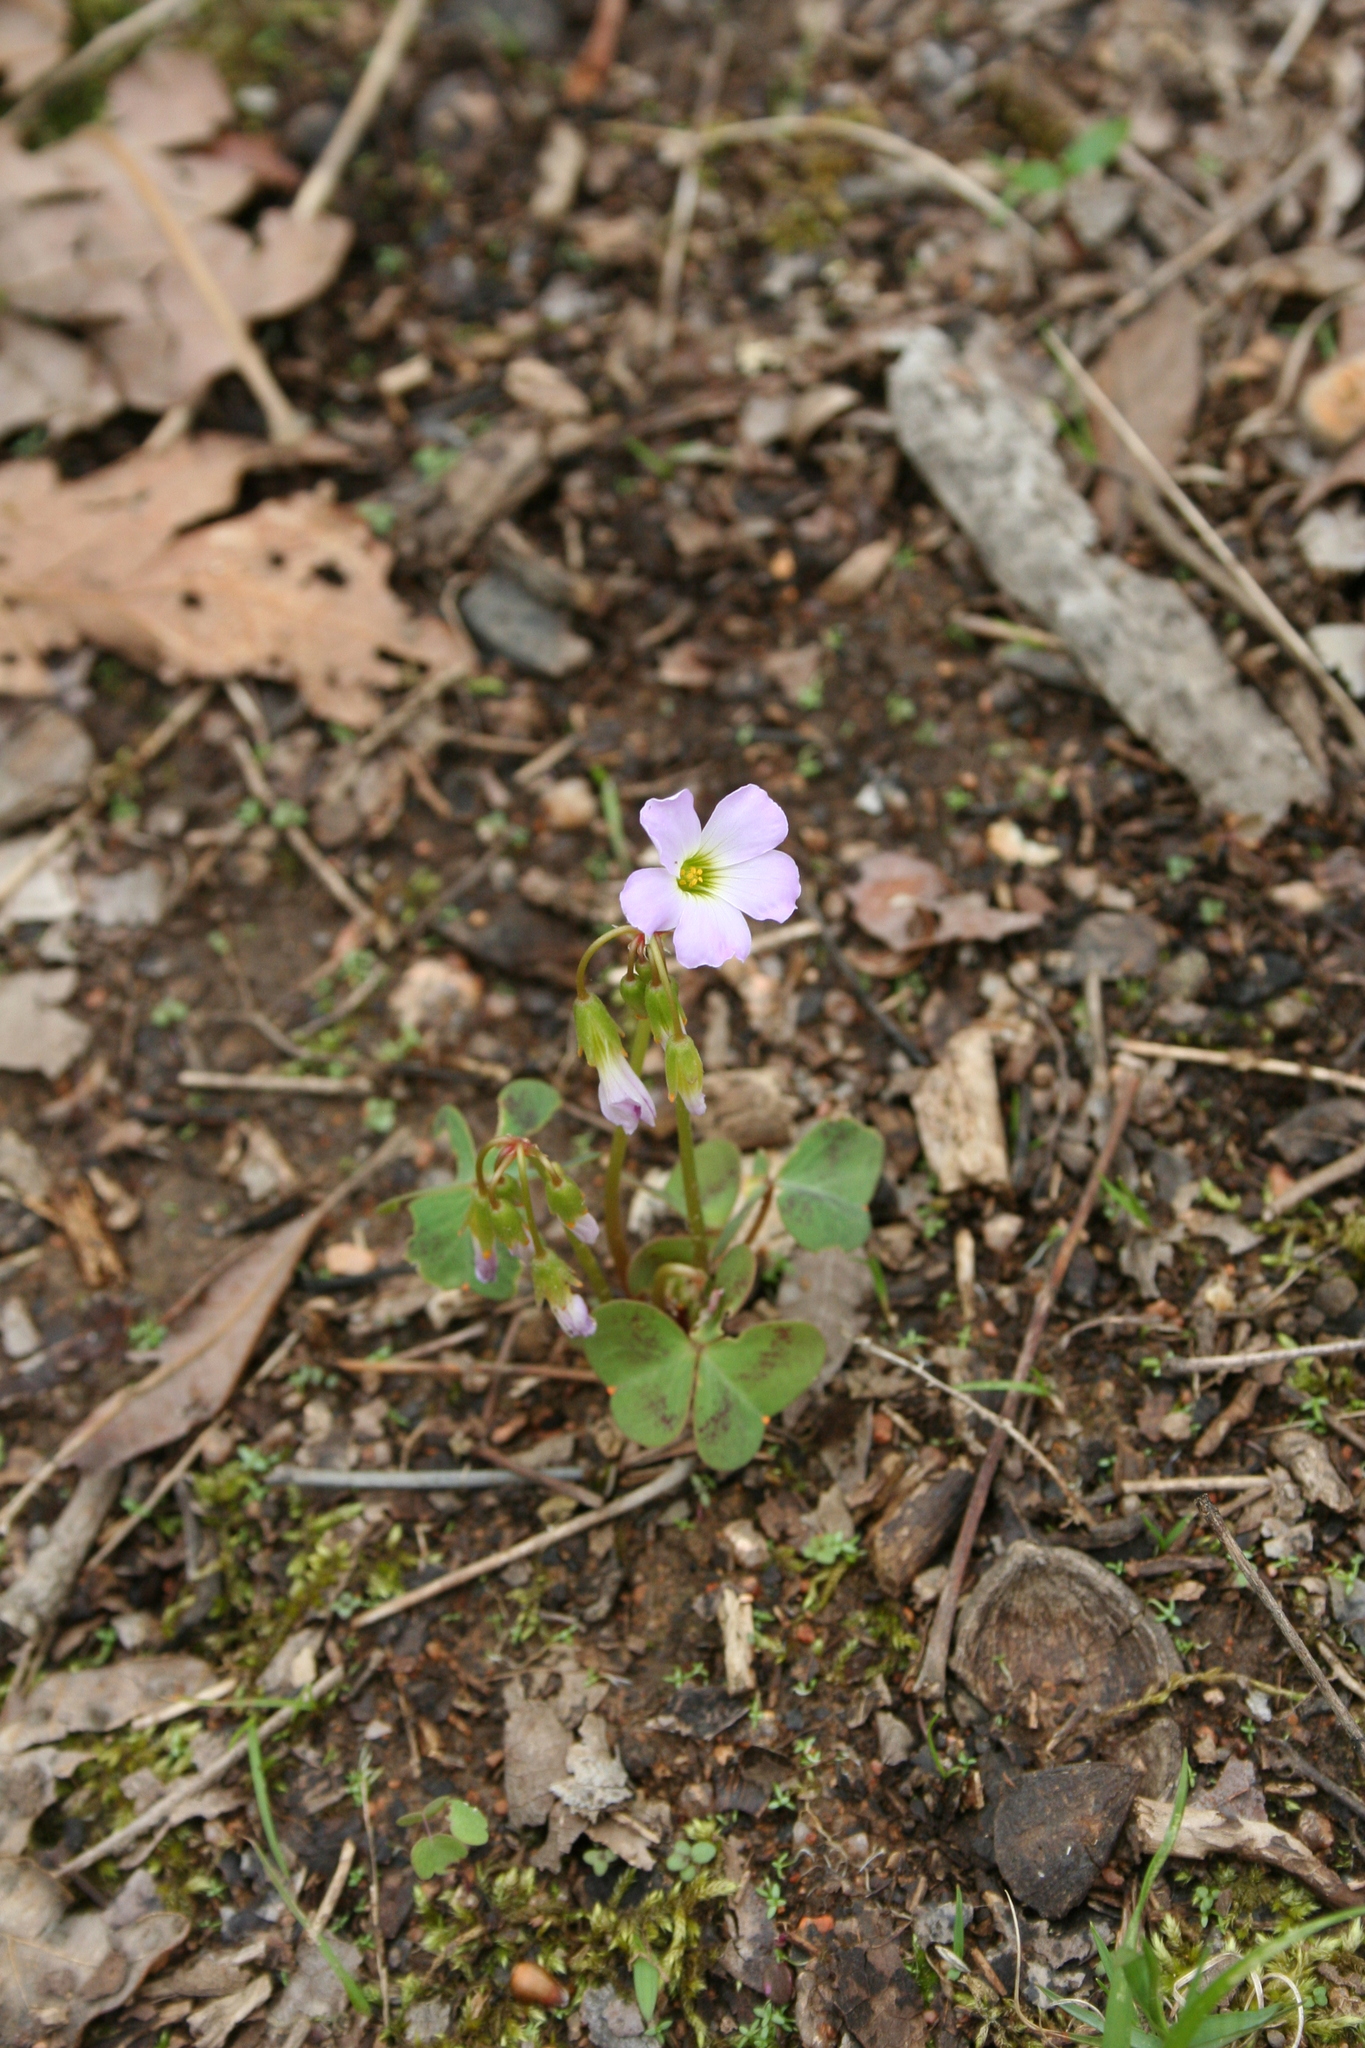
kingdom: Plantae
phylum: Tracheophyta
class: Magnoliopsida
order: Oxalidales
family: Oxalidaceae
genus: Oxalis
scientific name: Oxalis violacea
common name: Violet wood-sorrel
